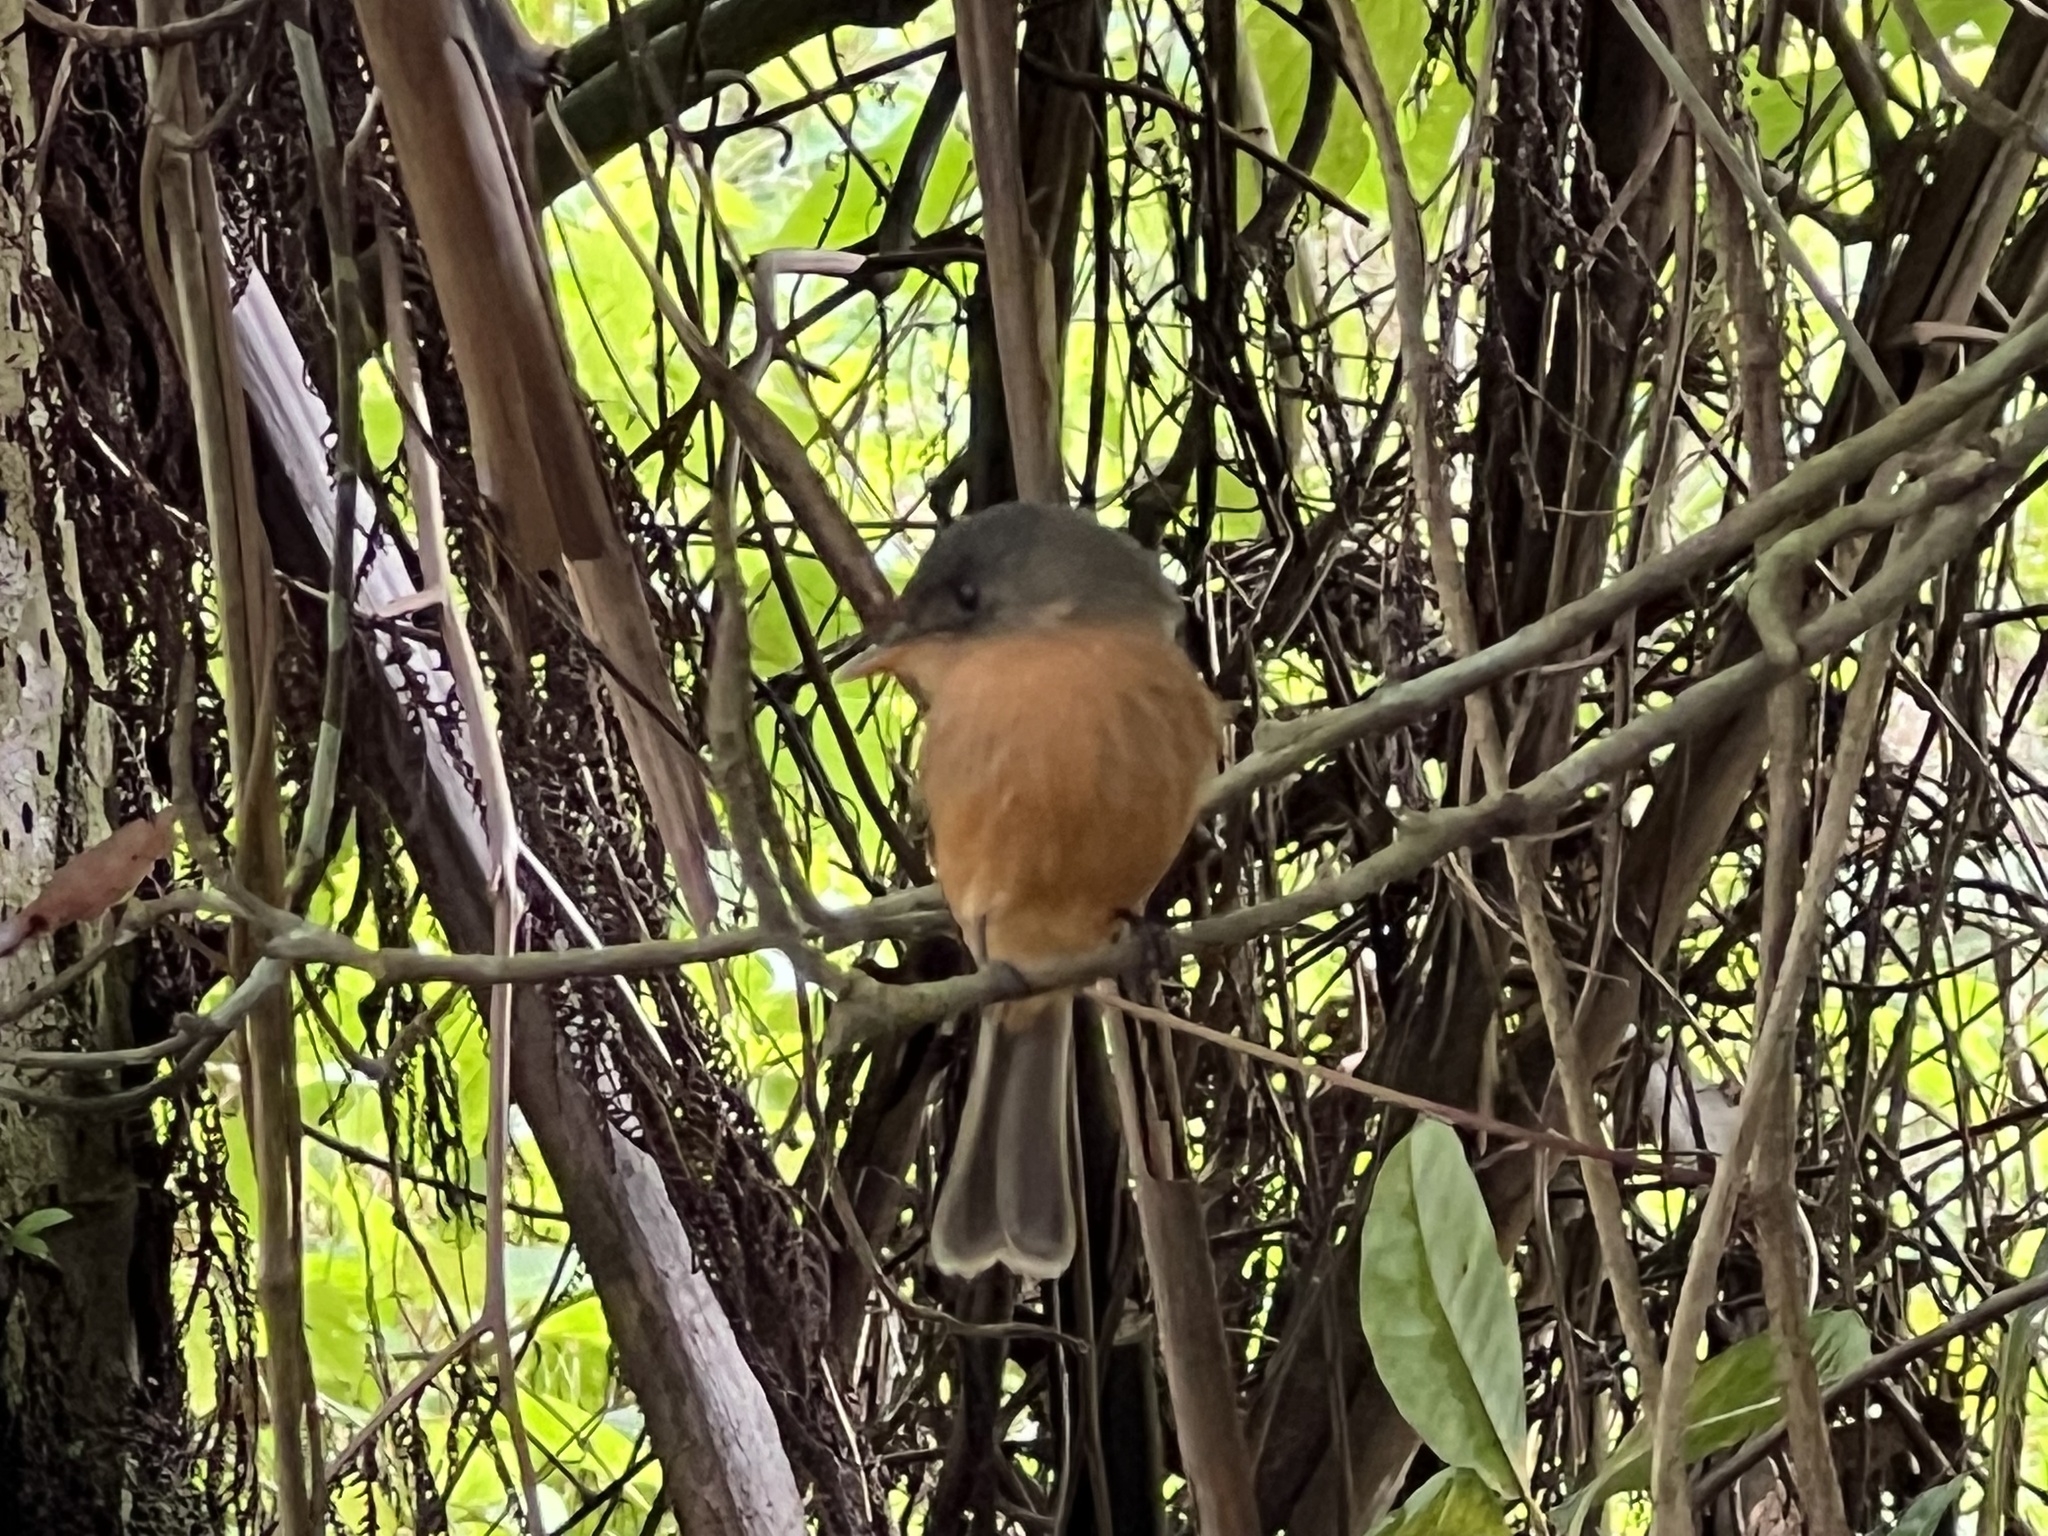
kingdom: Animalia
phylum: Chordata
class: Aves
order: Passeriformes
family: Tyrannidae
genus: Contopus
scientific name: Contopus latirostris
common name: Lesser antillean pewee
